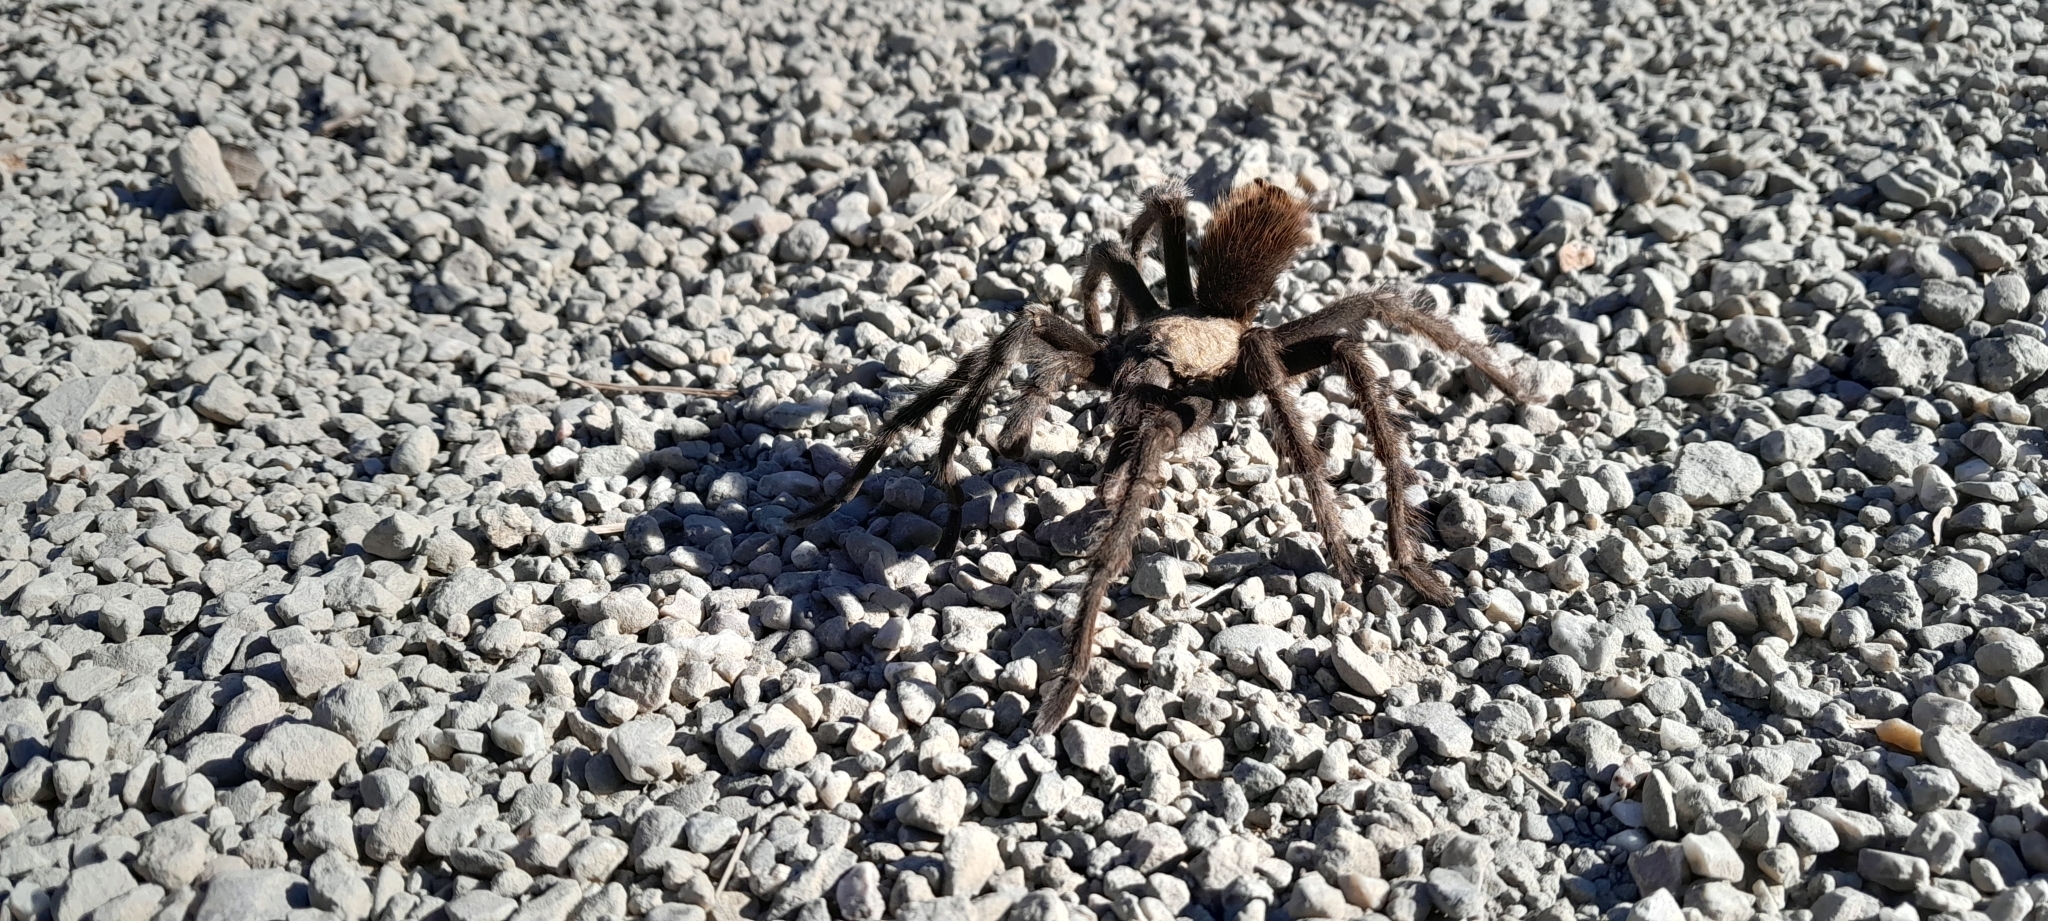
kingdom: Animalia
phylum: Arthropoda
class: Arachnida
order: Araneae
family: Theraphosidae
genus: Aphonopelma
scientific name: Aphonopelma iodius
